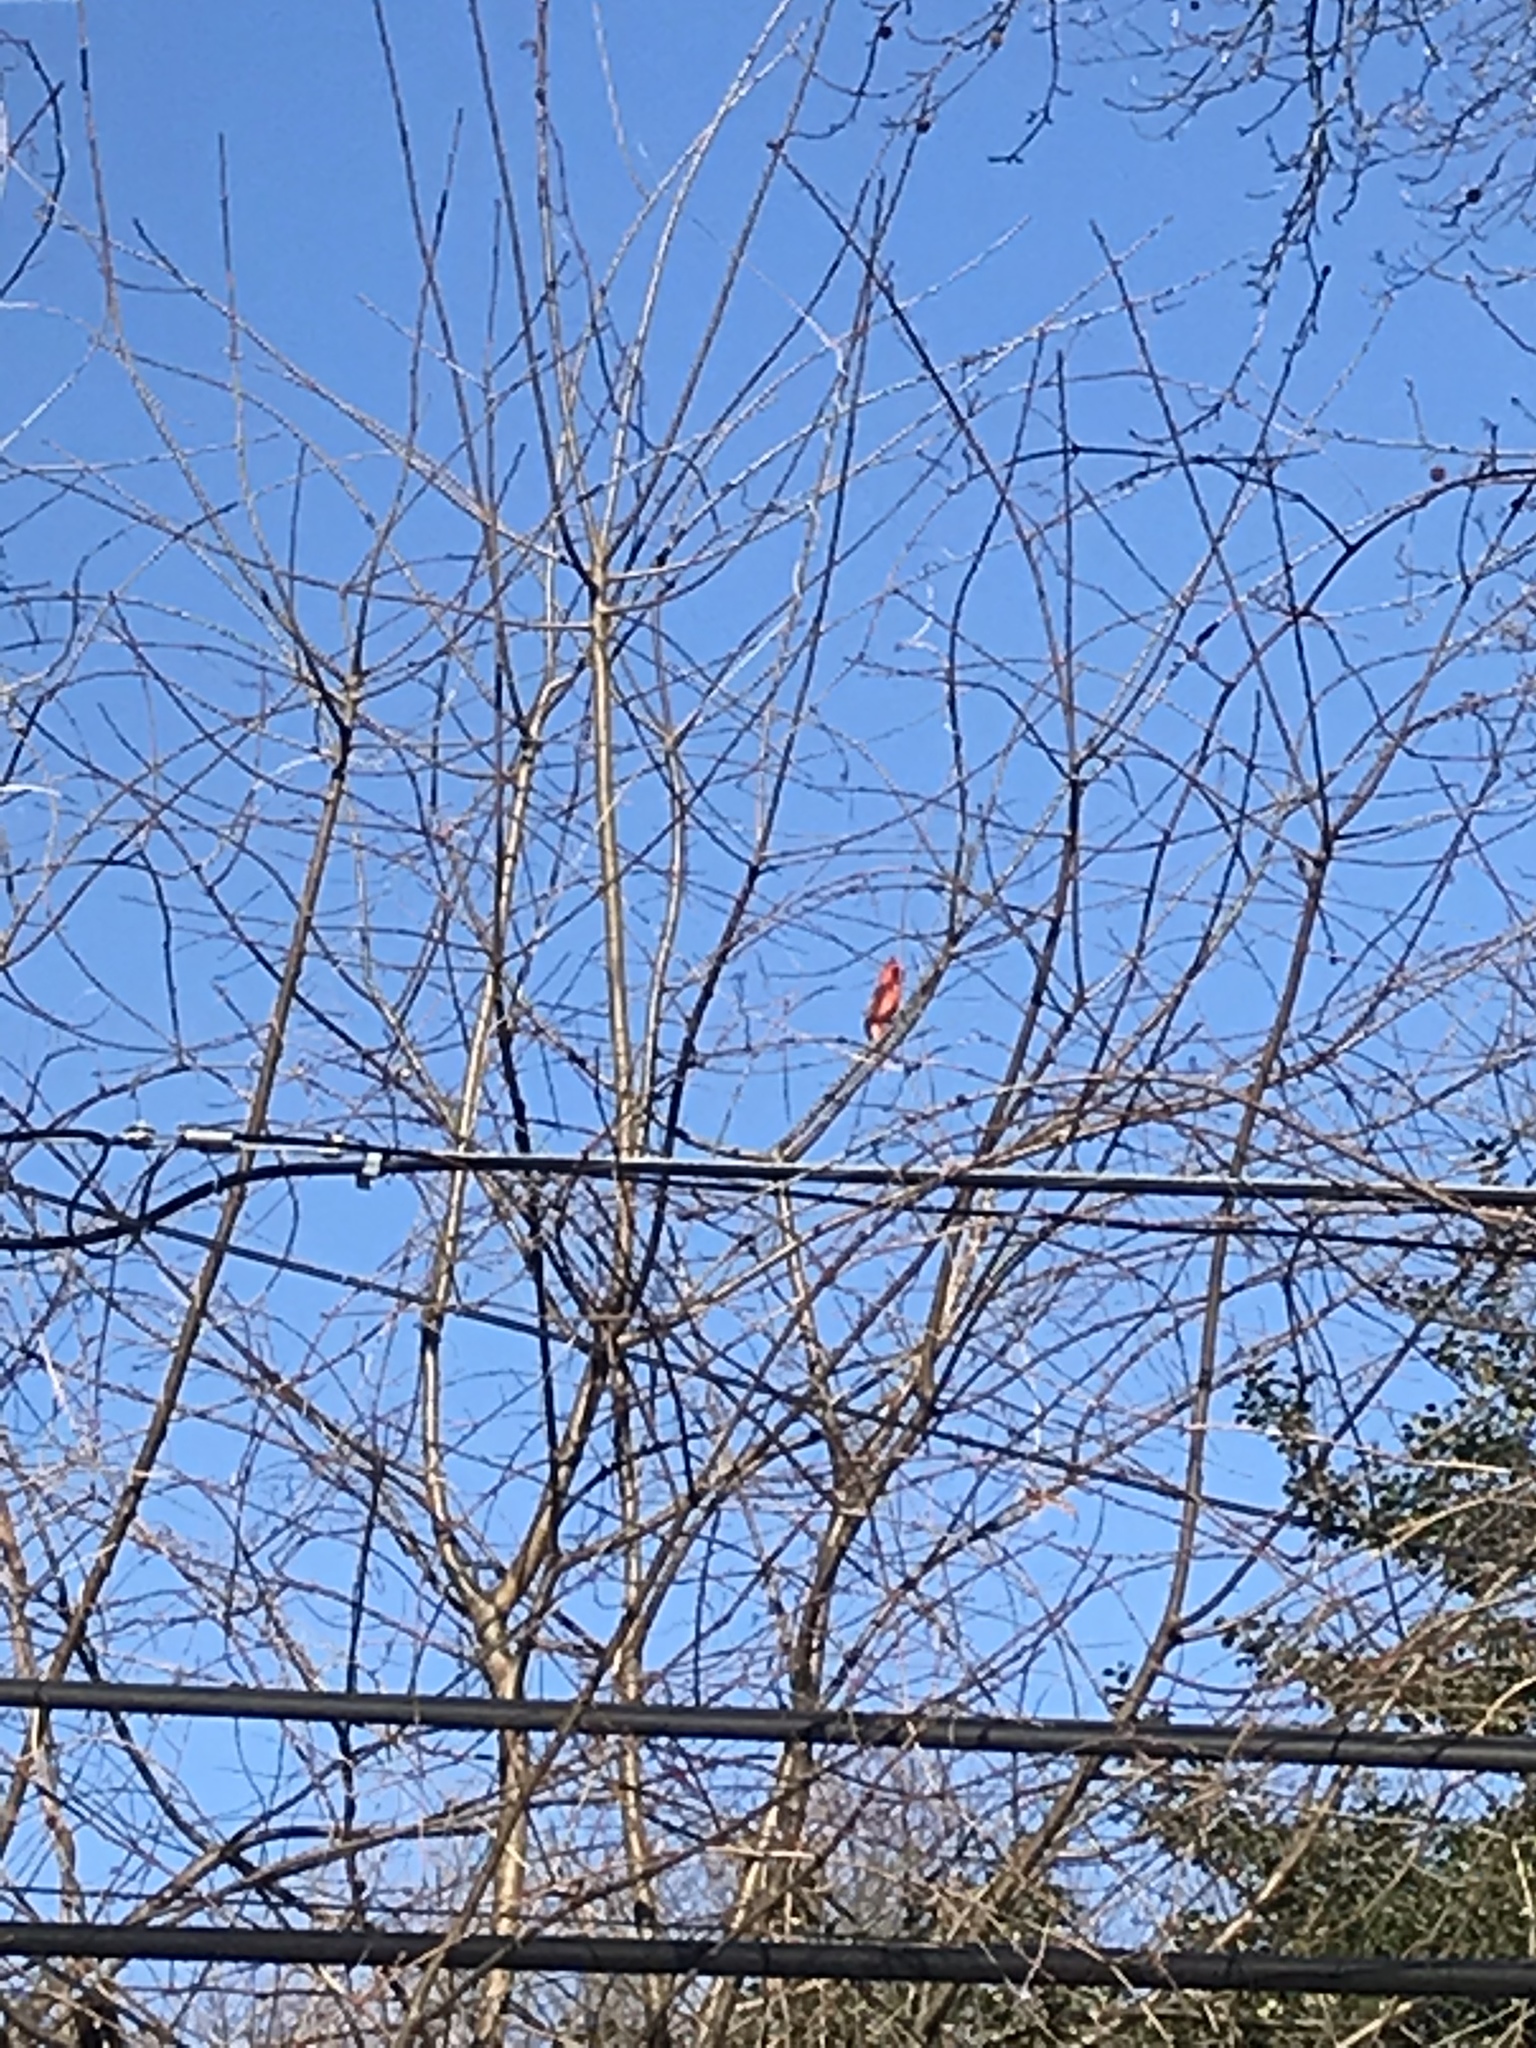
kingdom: Animalia
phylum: Chordata
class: Aves
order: Passeriformes
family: Cardinalidae
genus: Cardinalis
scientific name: Cardinalis cardinalis
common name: Northern cardinal
